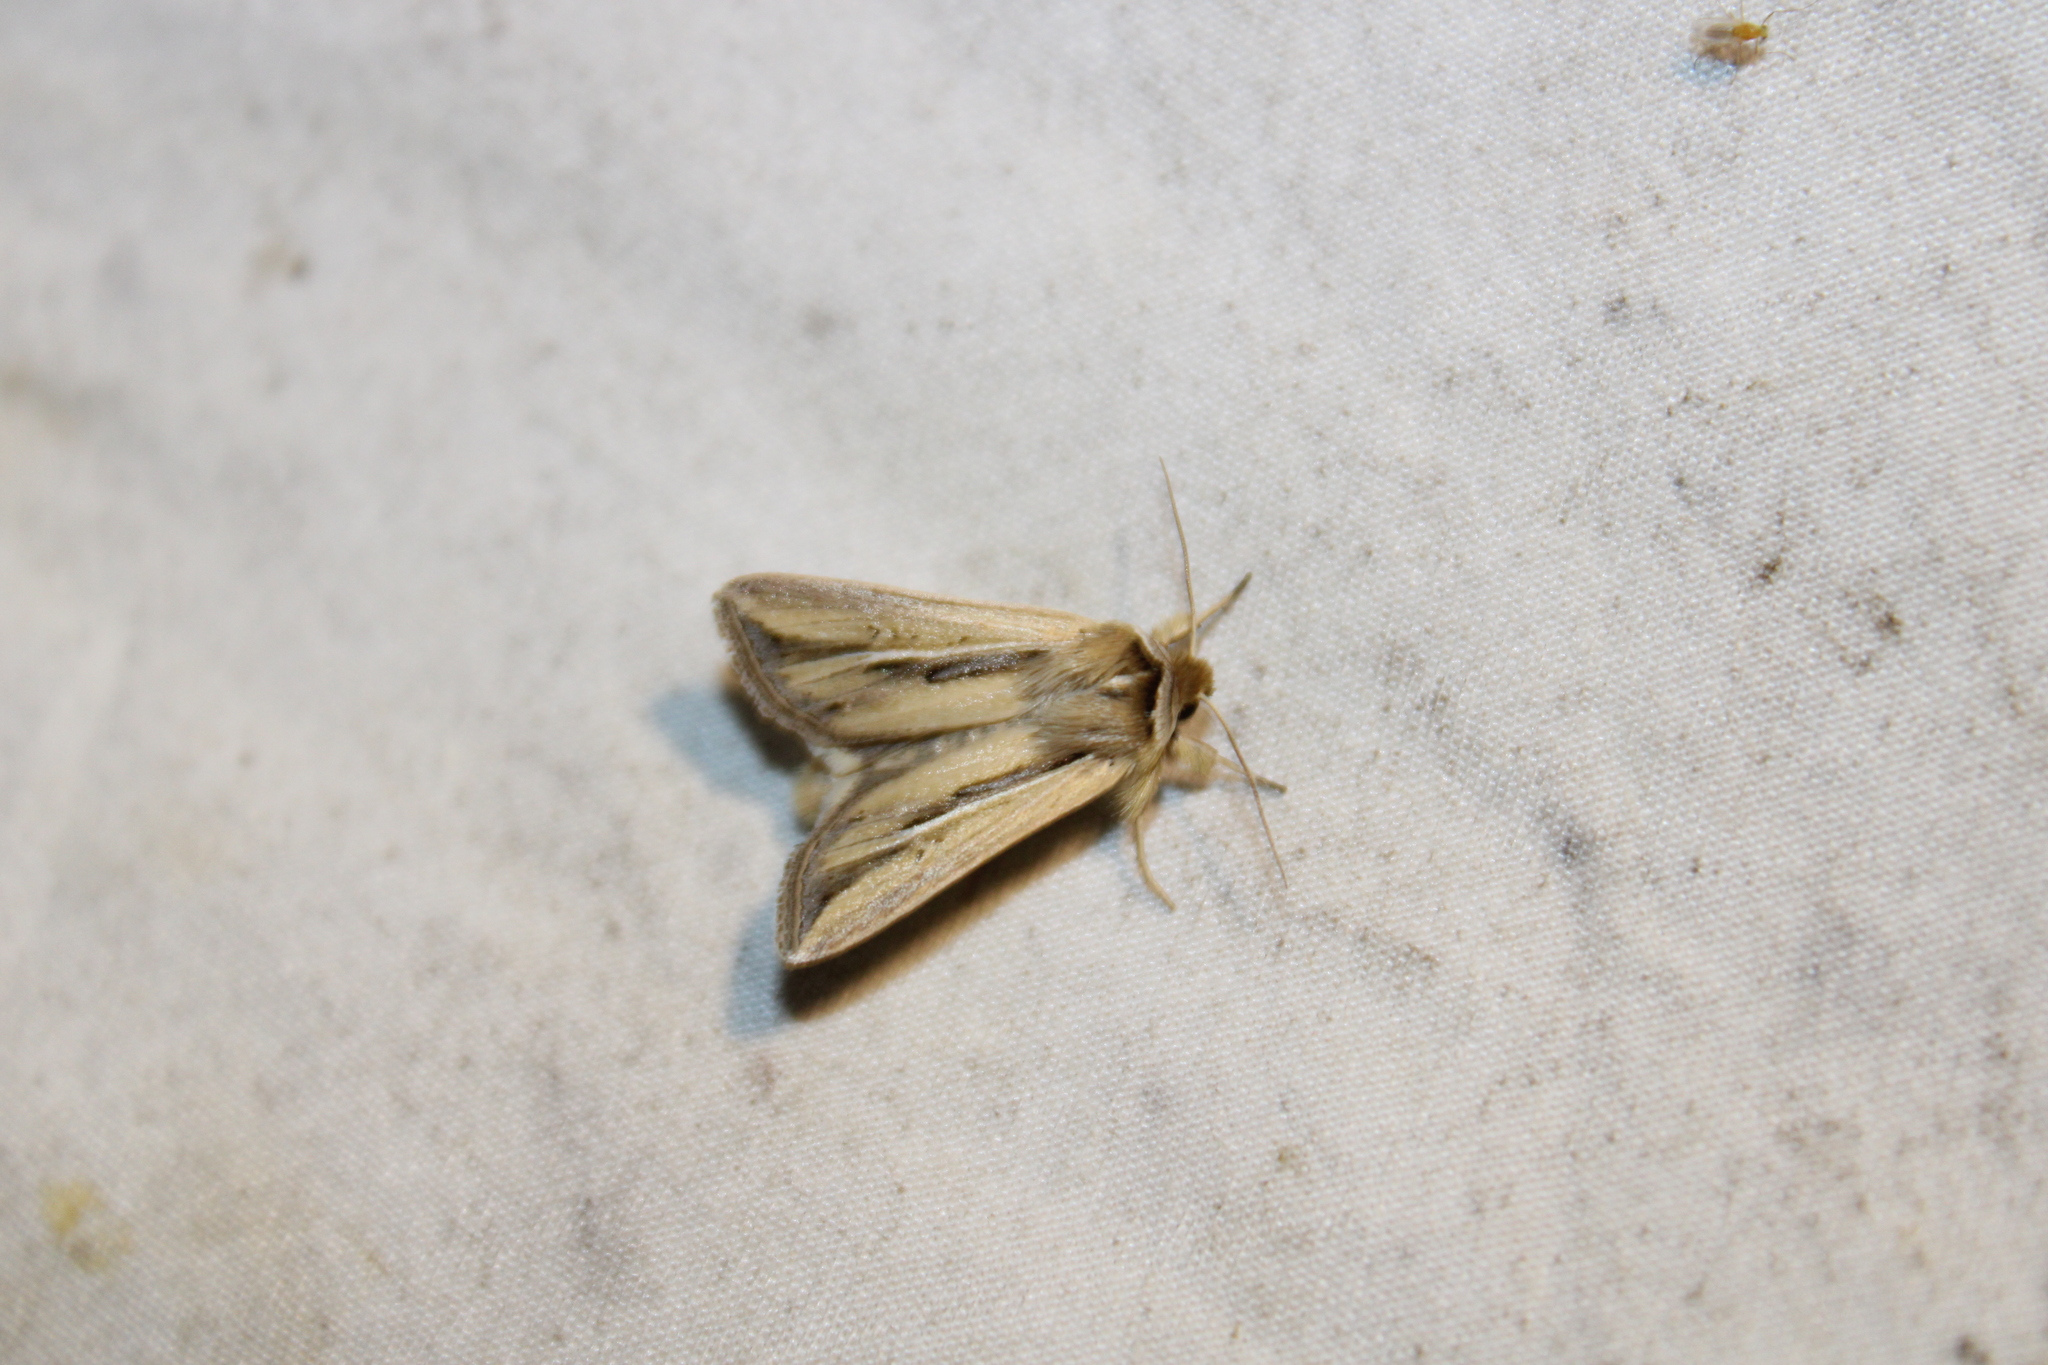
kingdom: Animalia
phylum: Arthropoda
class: Insecta
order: Lepidoptera
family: Noctuidae
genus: Dargida
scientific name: Dargida diffusa
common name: Wheat head armyworm
